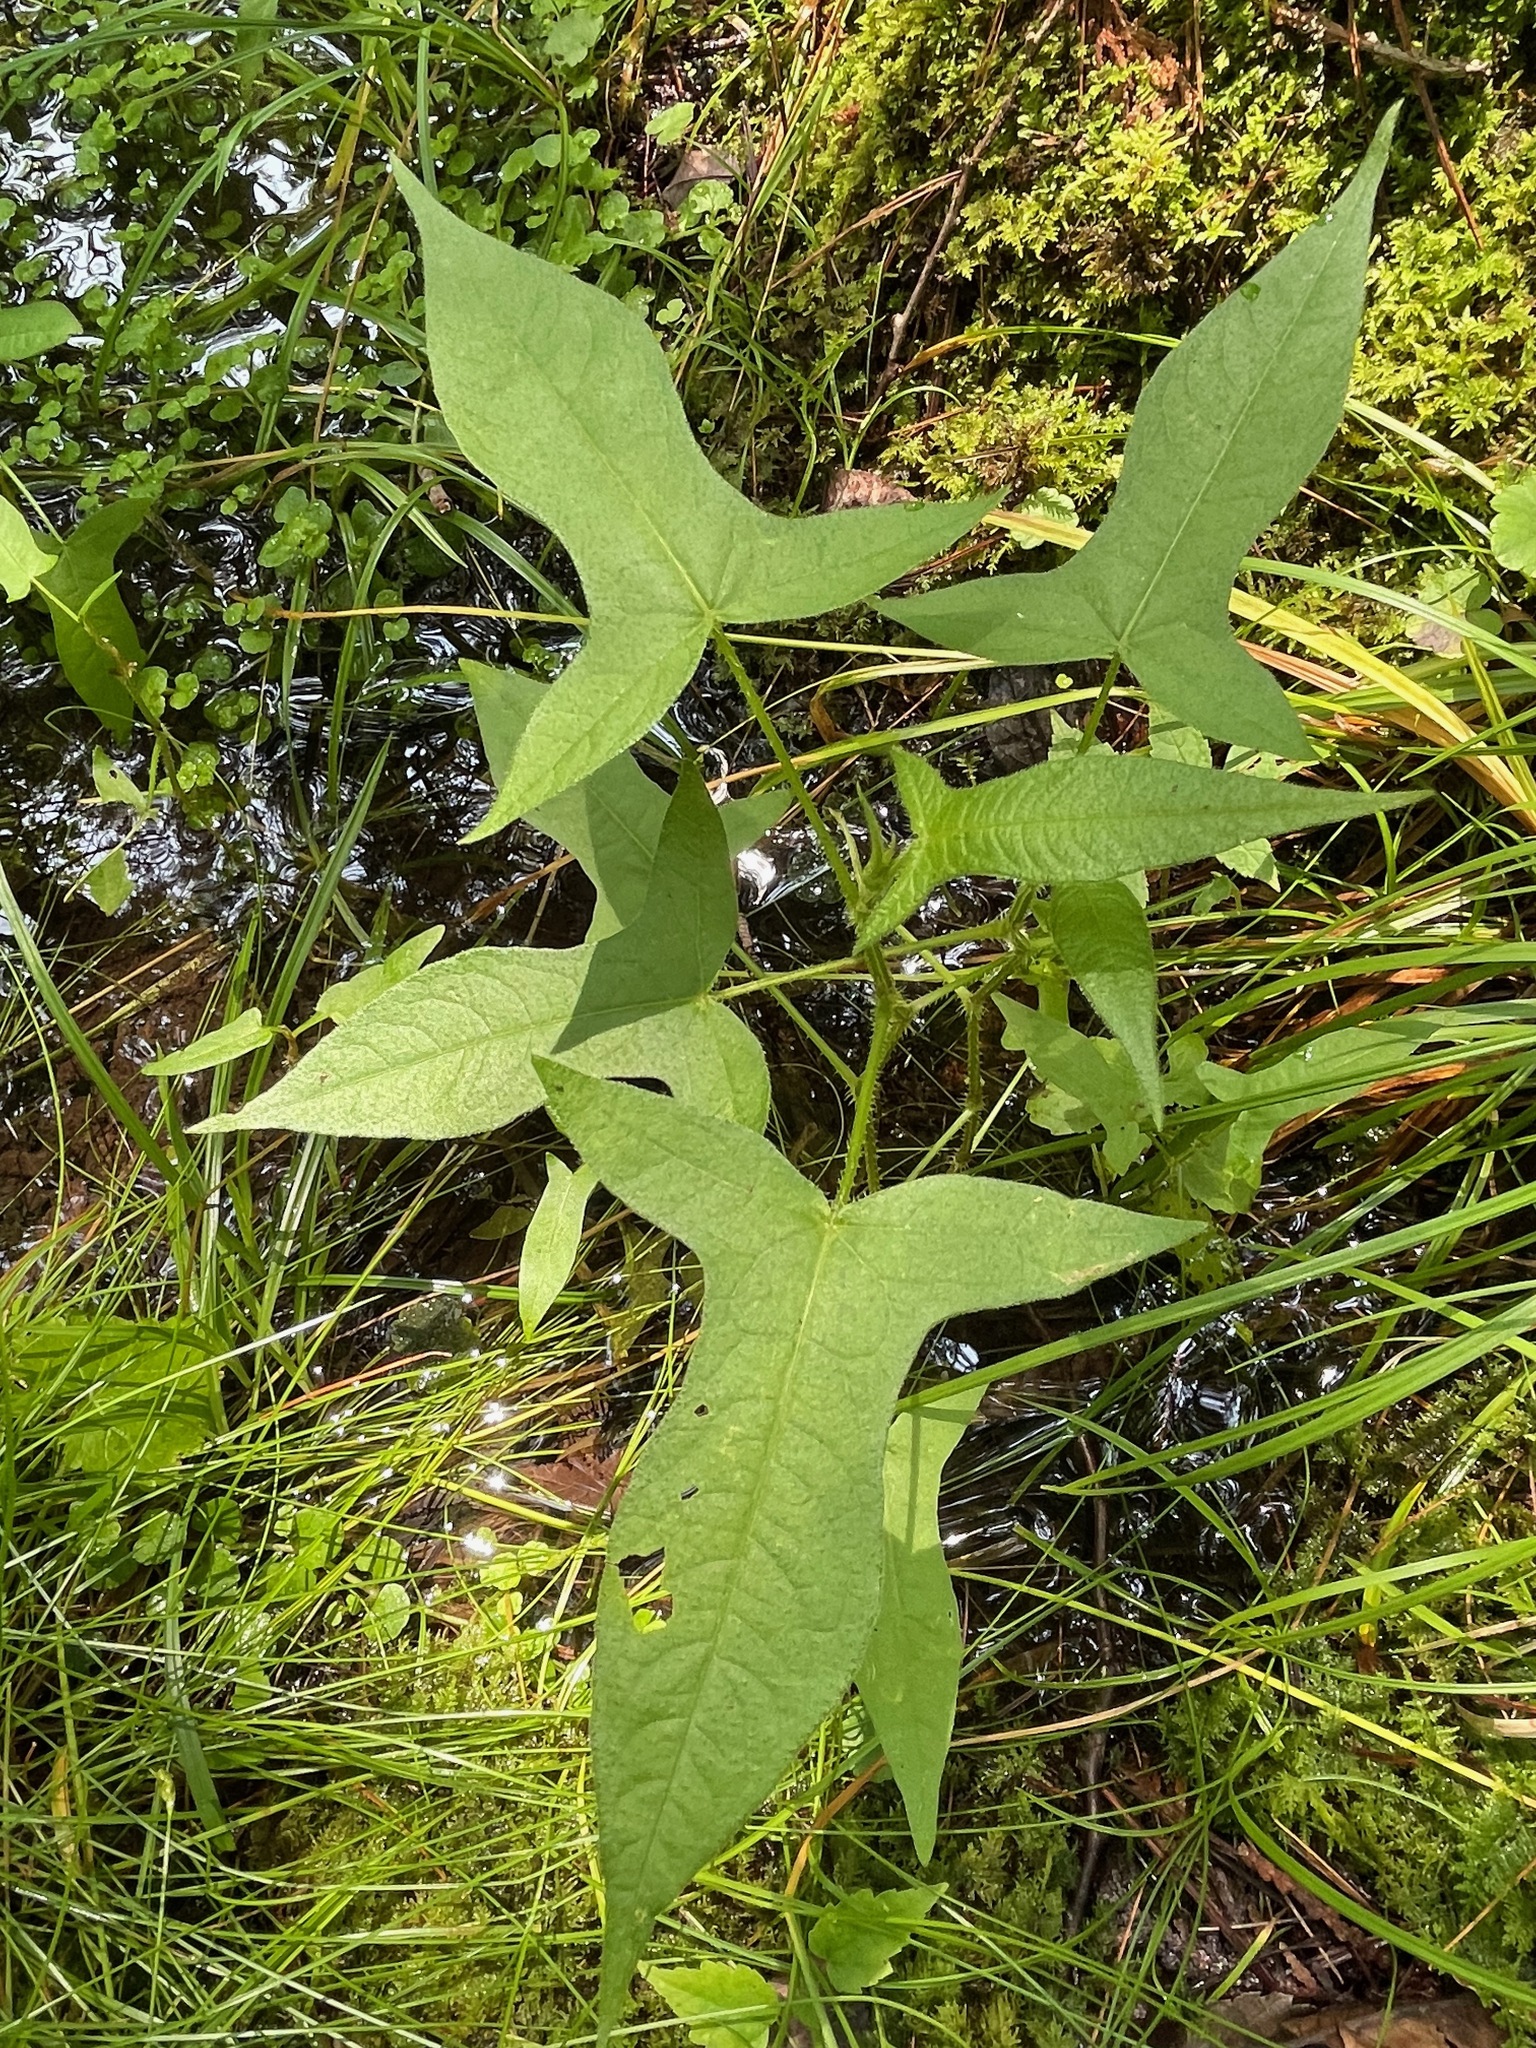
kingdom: Plantae
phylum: Tracheophyta
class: Magnoliopsida
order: Caryophyllales
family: Polygonaceae
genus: Persicaria
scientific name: Persicaria arifolia
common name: Halberd-leaved tear-thumb
